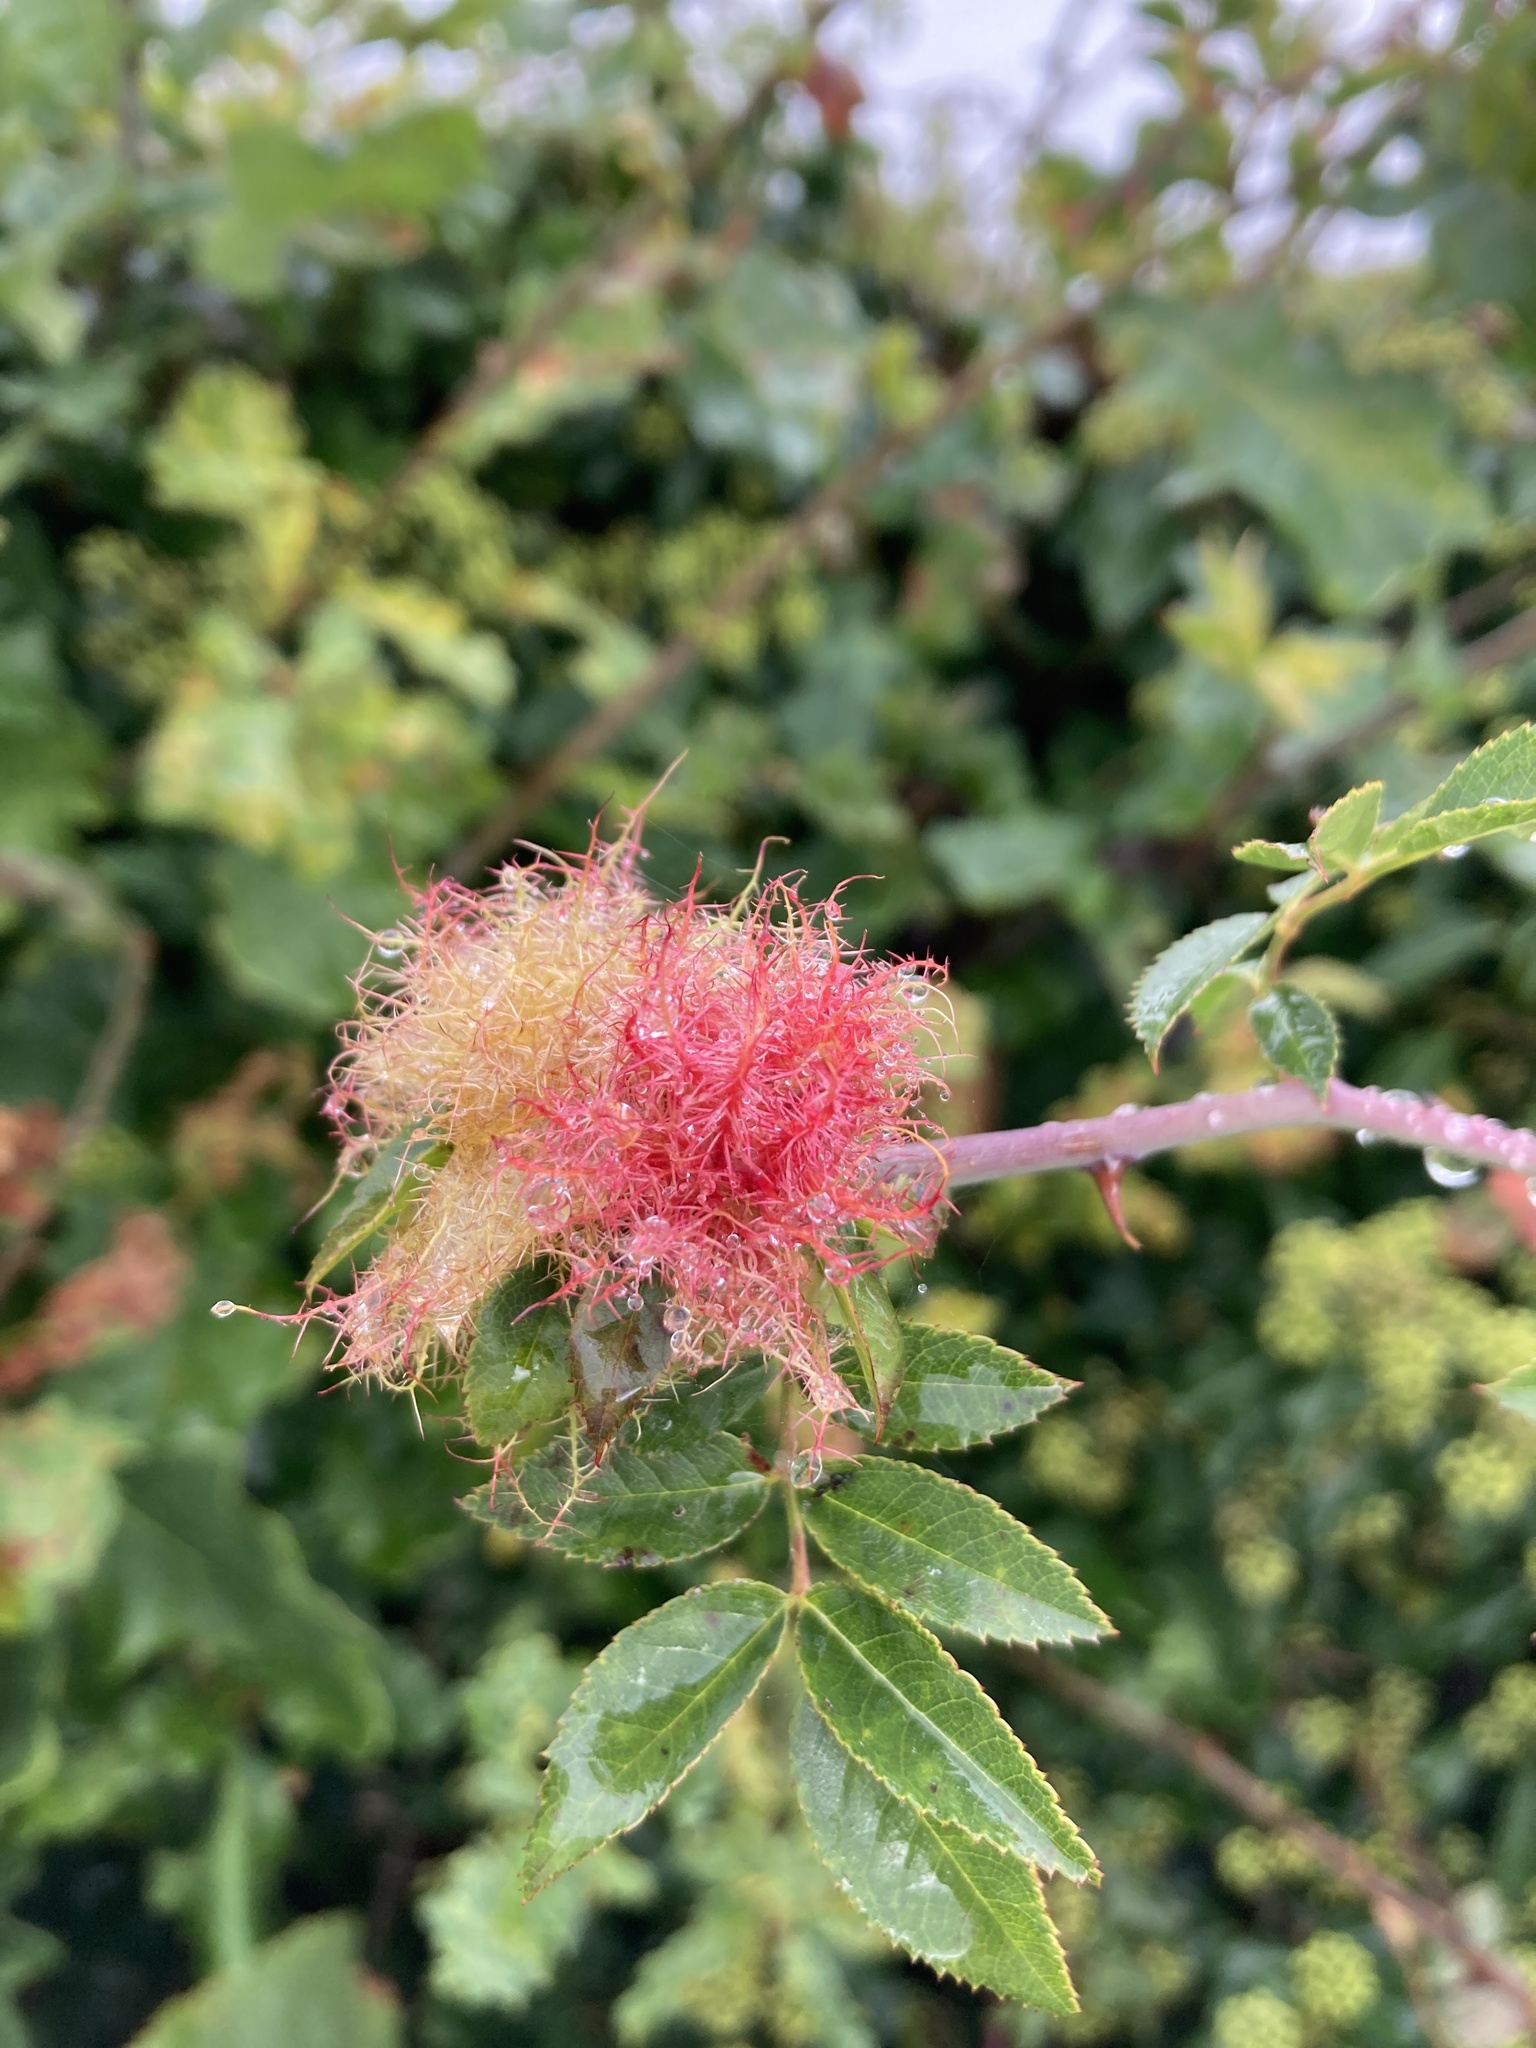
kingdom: Animalia
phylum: Arthropoda
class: Insecta
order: Hymenoptera
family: Cynipidae
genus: Diplolepis
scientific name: Diplolepis rosae
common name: Bedeguar gall
